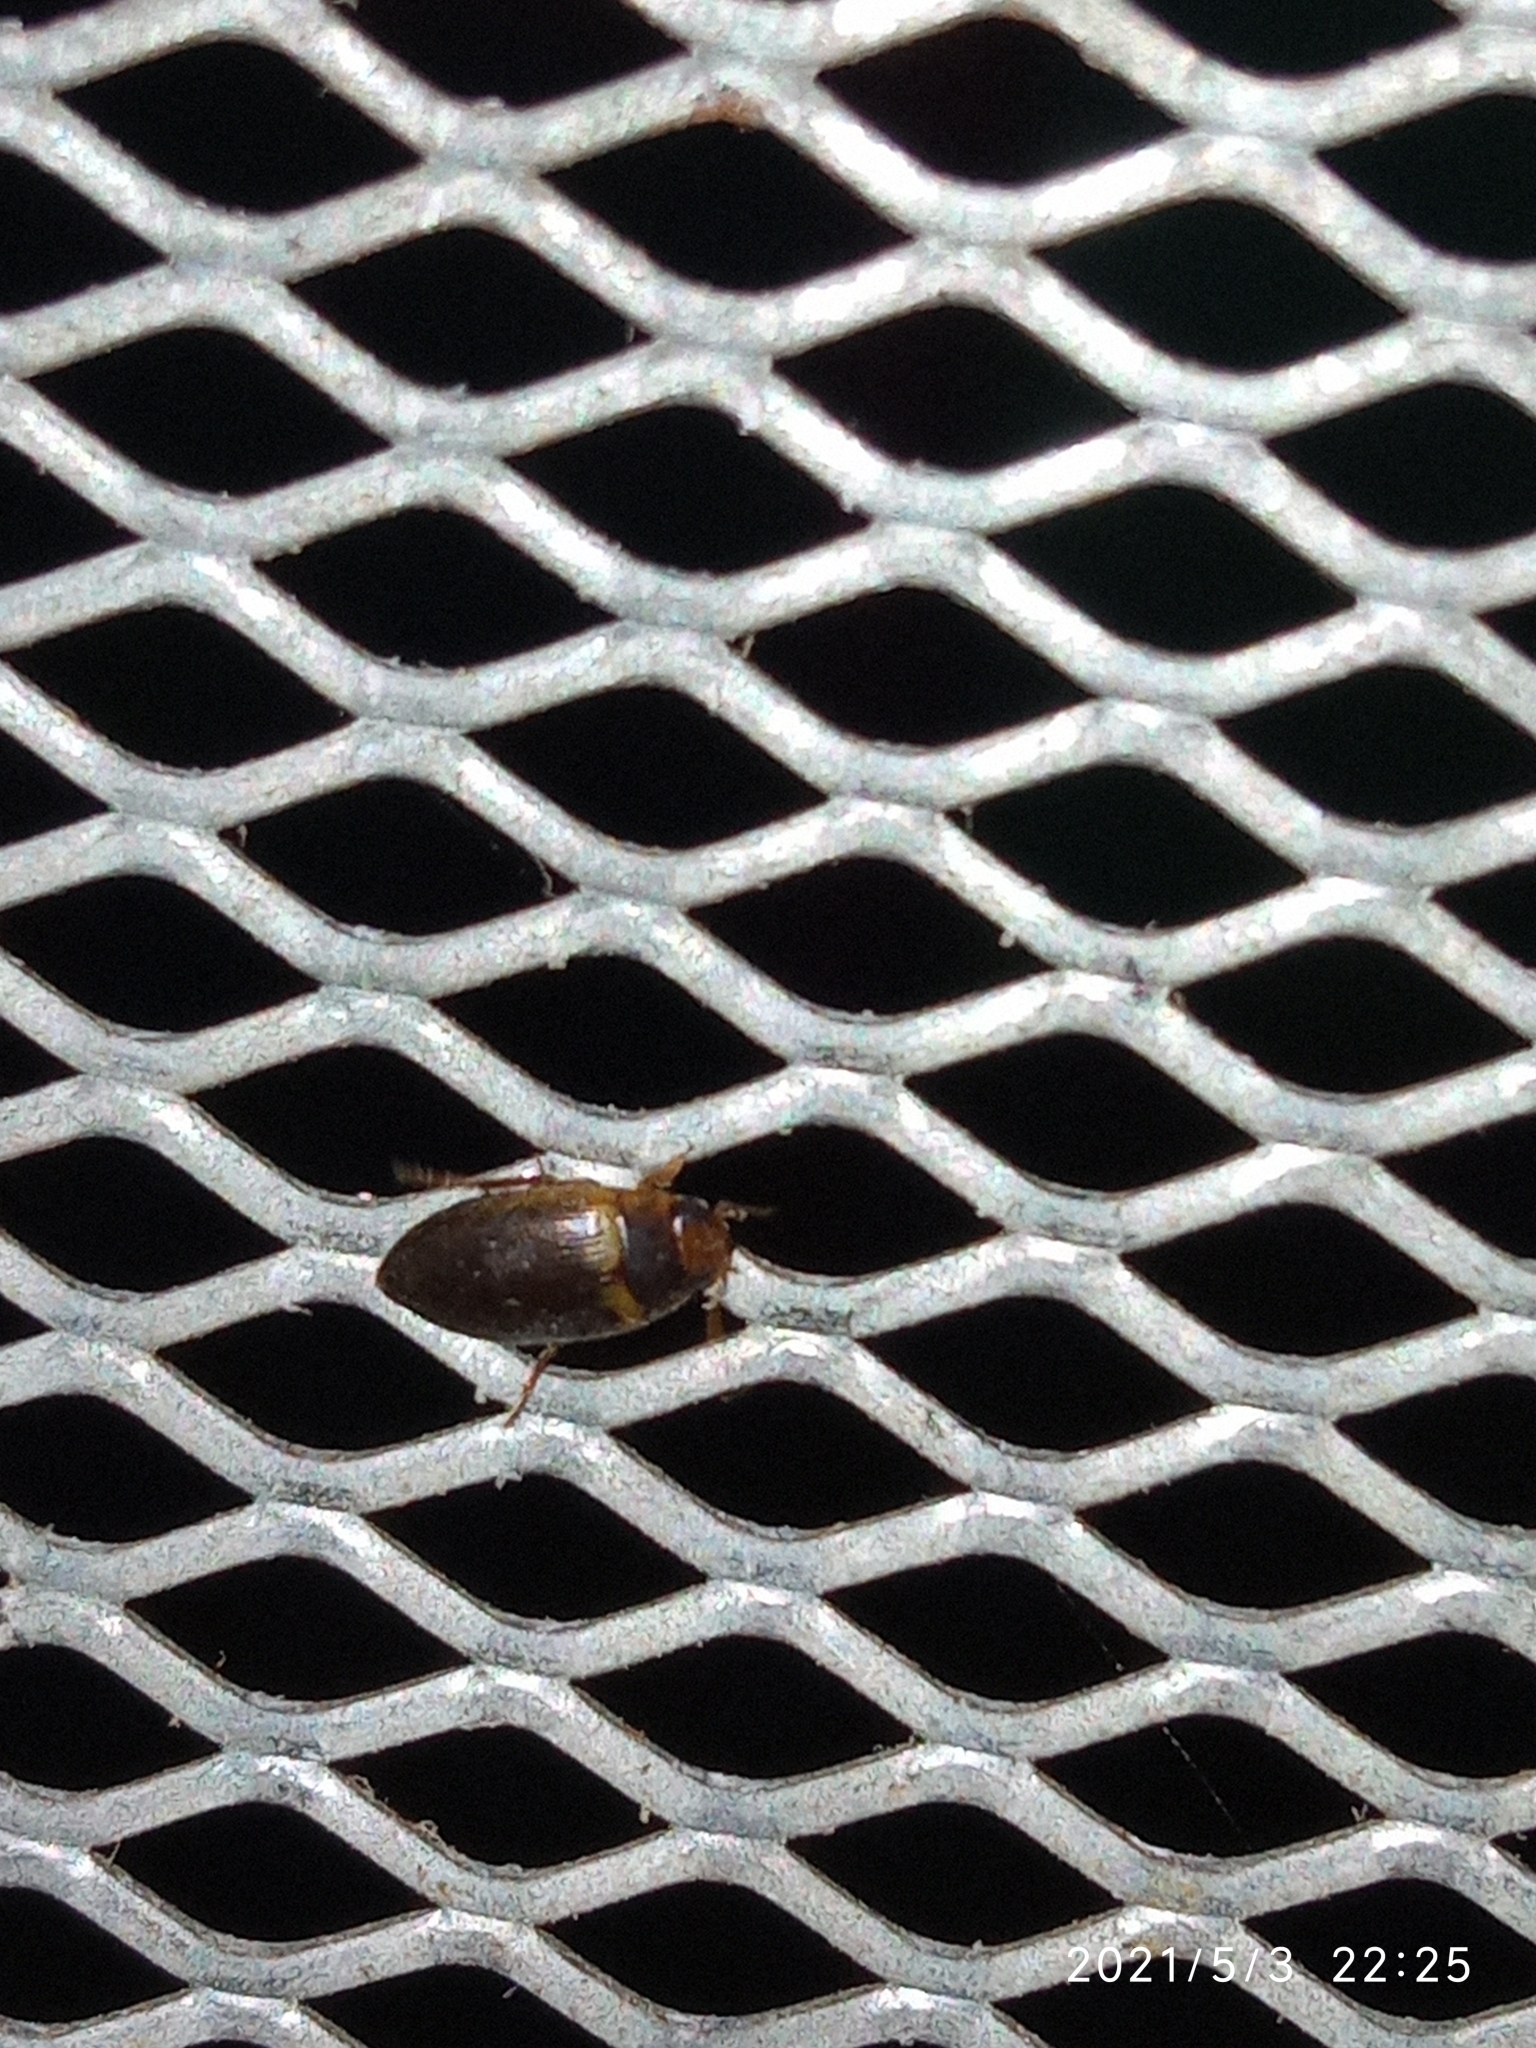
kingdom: Animalia
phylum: Arthropoda
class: Insecta
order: Coleoptera
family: Dytiscidae
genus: Copelatus
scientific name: Copelatus caelatipennis
